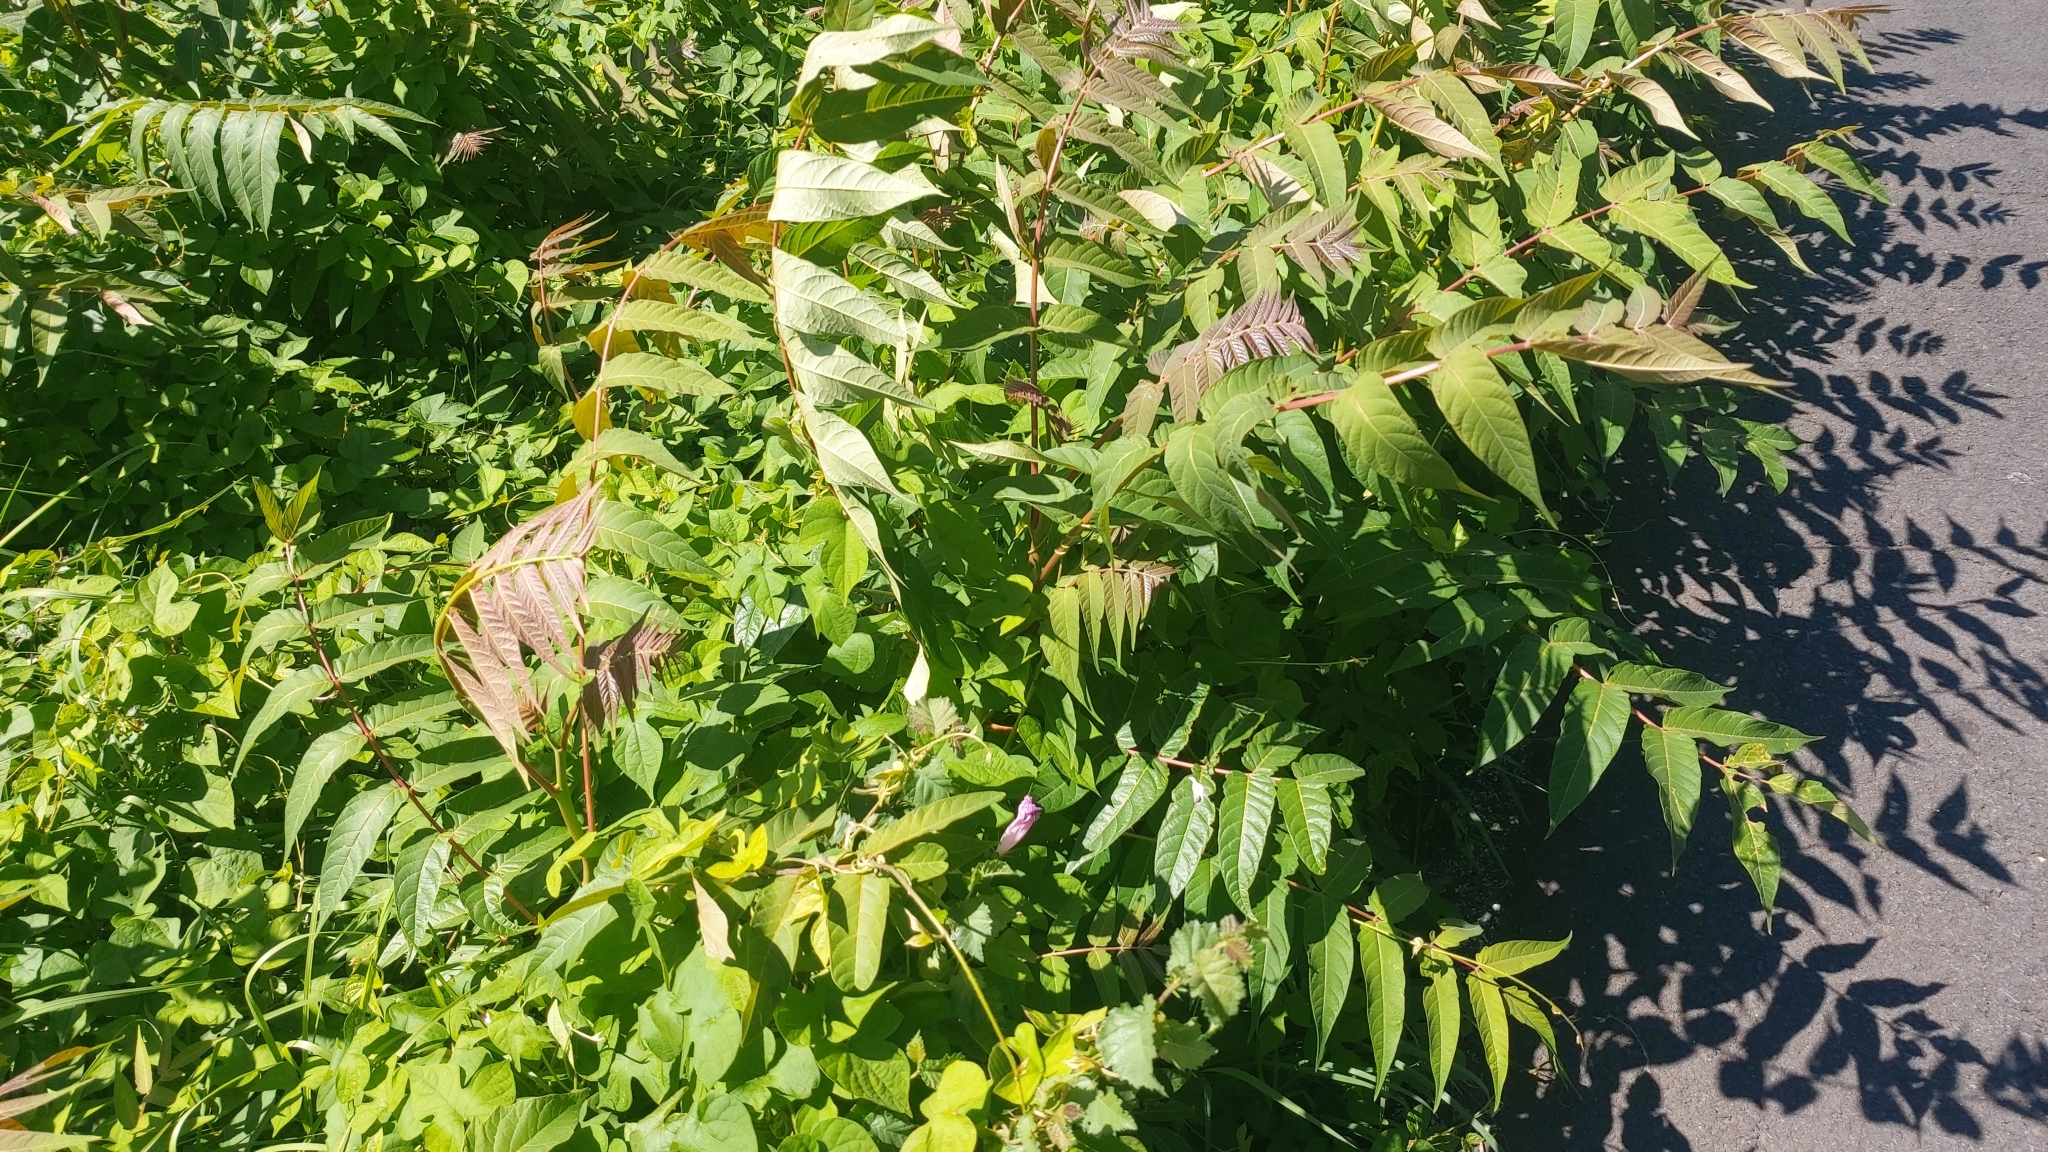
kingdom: Plantae
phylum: Tracheophyta
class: Magnoliopsida
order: Sapindales
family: Simaroubaceae
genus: Ailanthus
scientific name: Ailanthus altissima
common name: Tree-of-heaven
